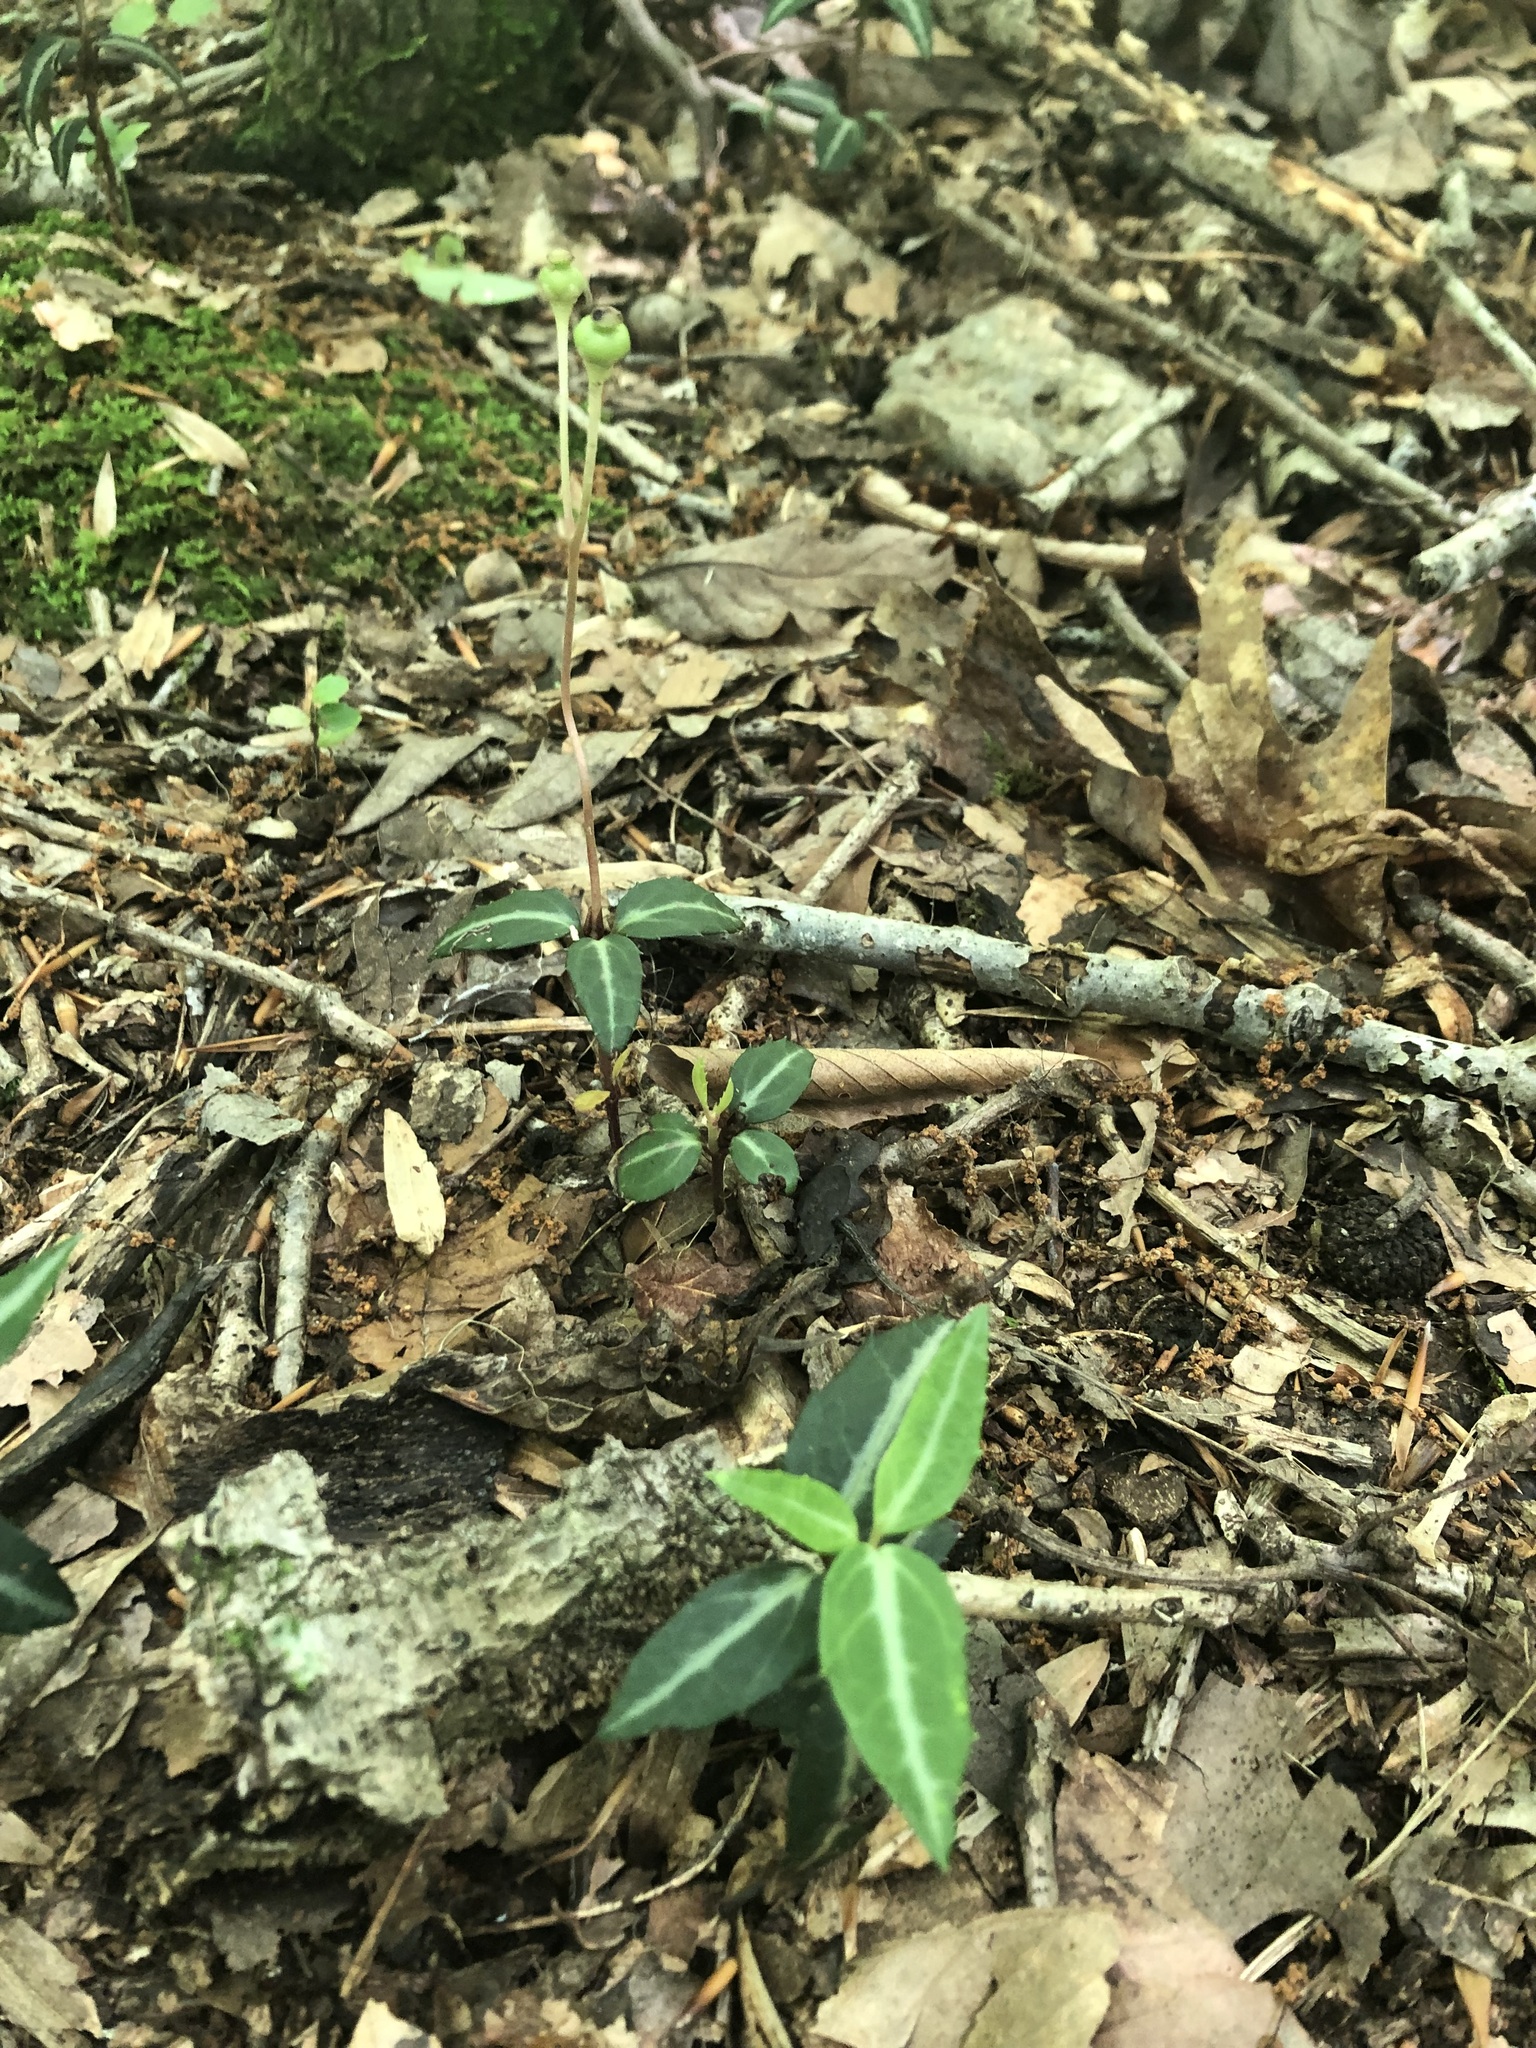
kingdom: Plantae
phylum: Tracheophyta
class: Magnoliopsida
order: Ericales
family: Ericaceae
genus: Chimaphila
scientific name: Chimaphila maculata
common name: Spotted pipsissewa
